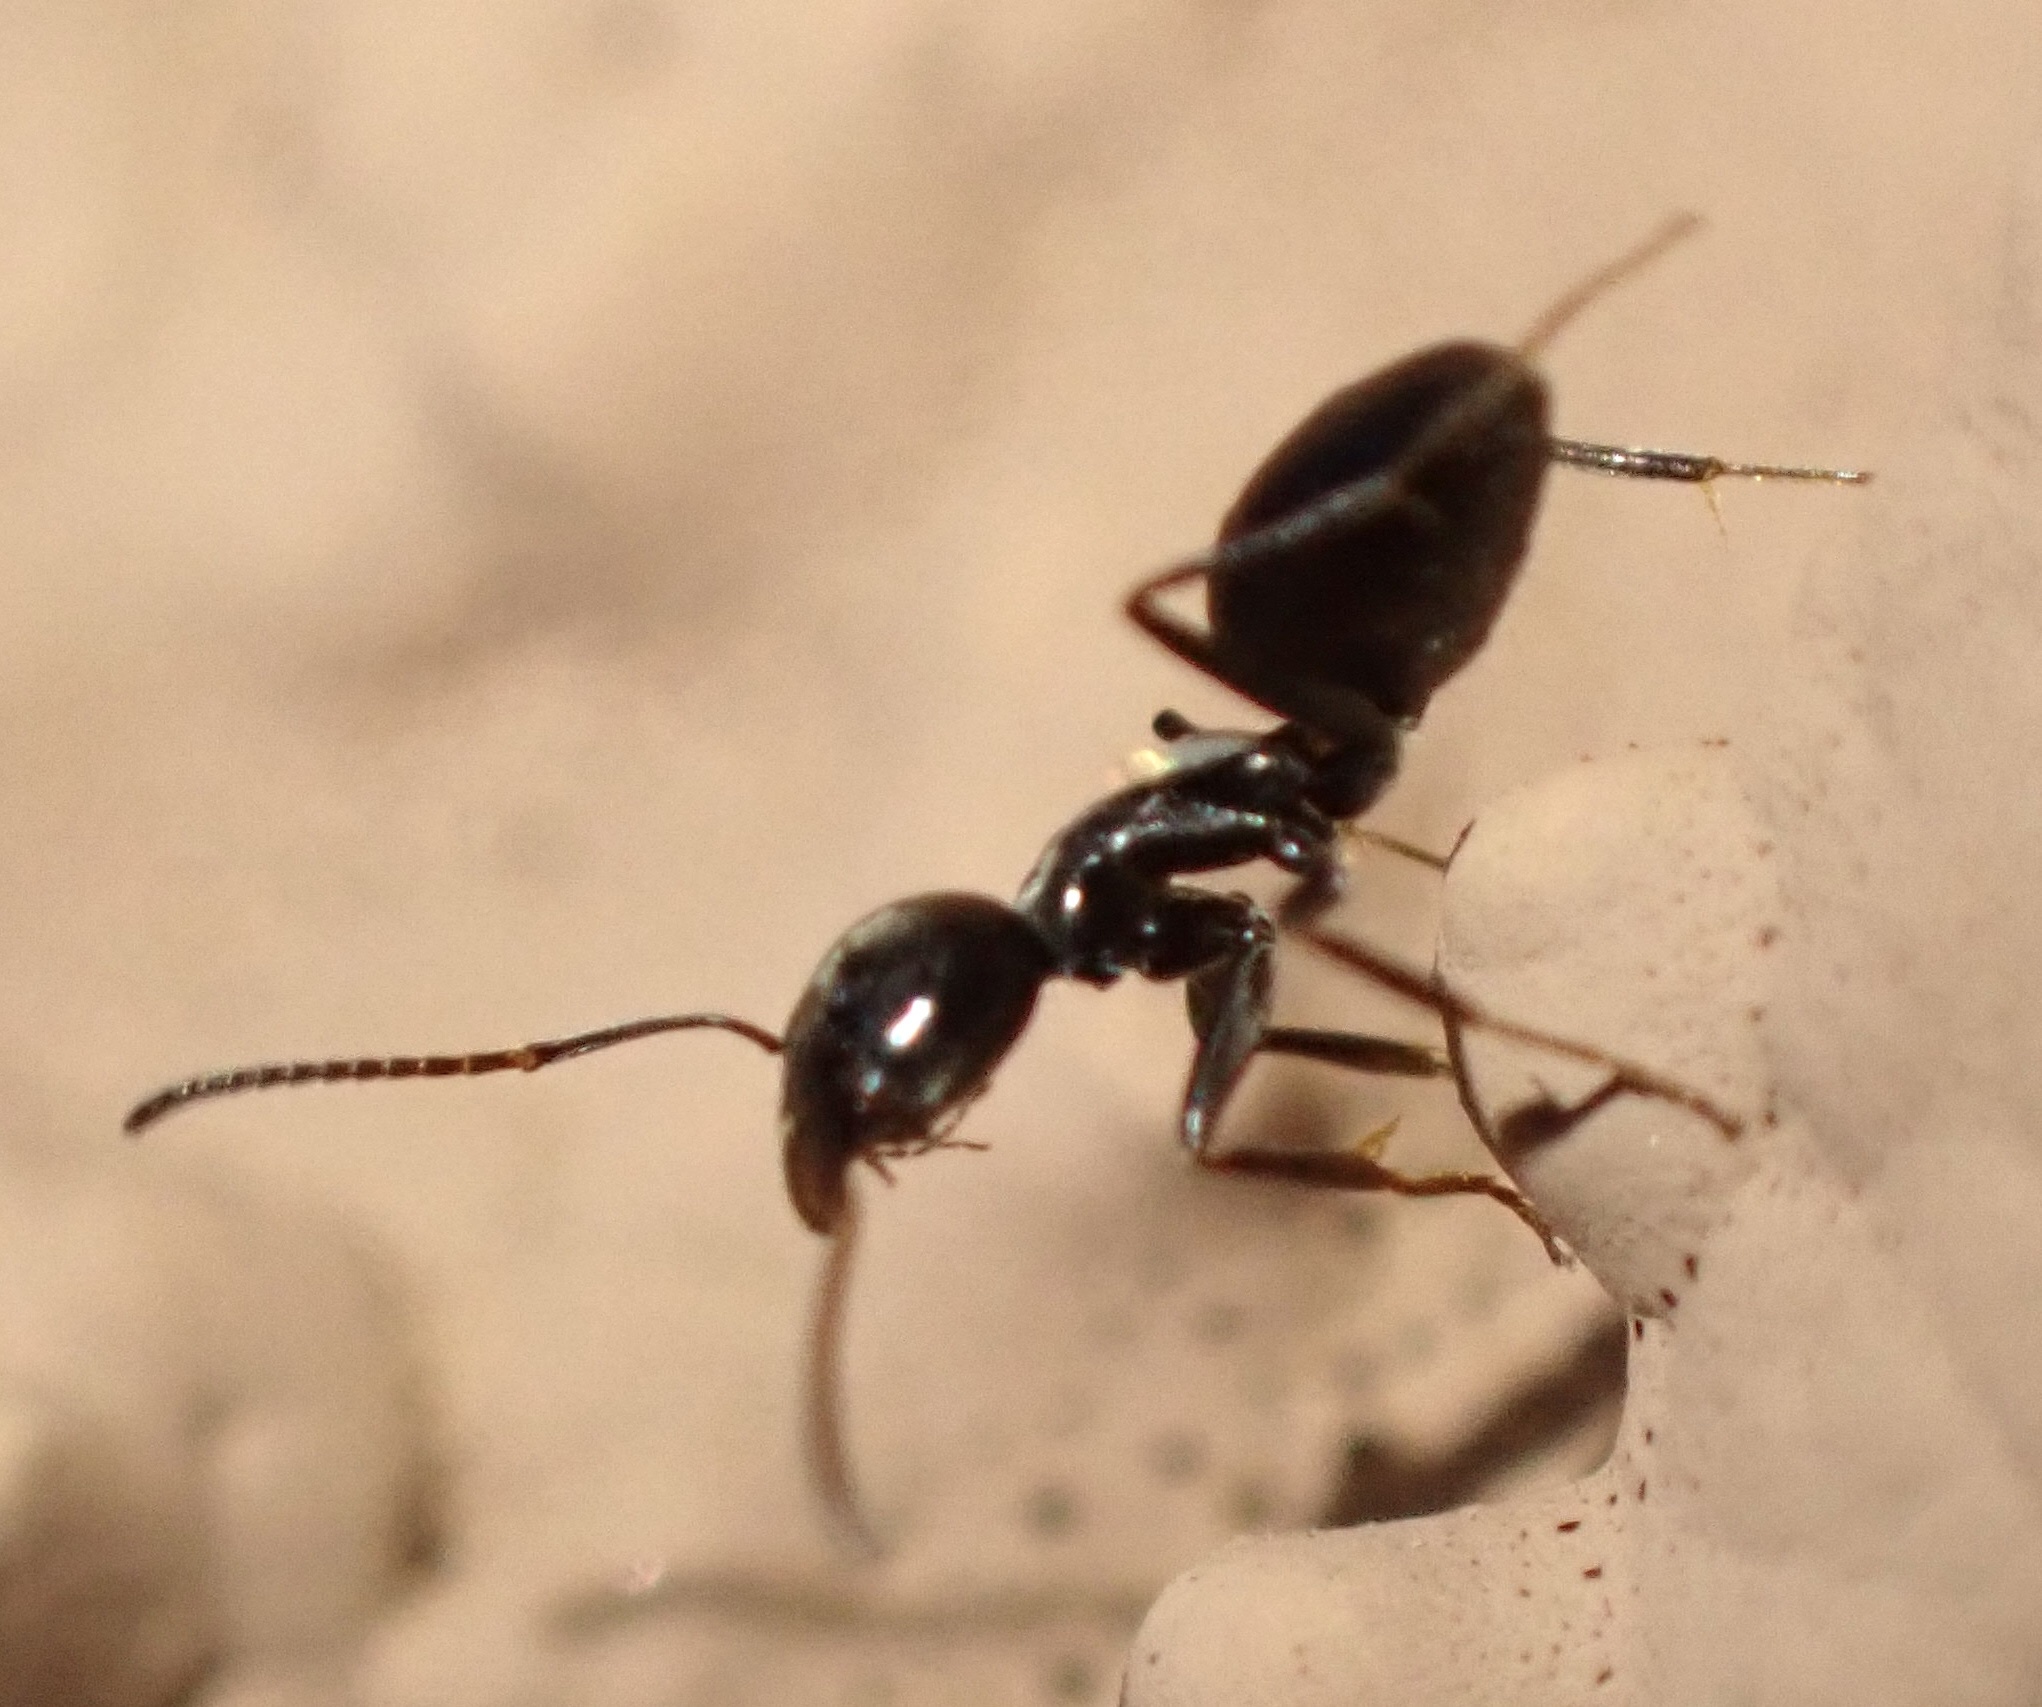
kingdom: Animalia
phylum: Arthropoda
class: Insecta
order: Hymenoptera
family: Formicidae
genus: Tapinoma
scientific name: Tapinoma nigerrimum
